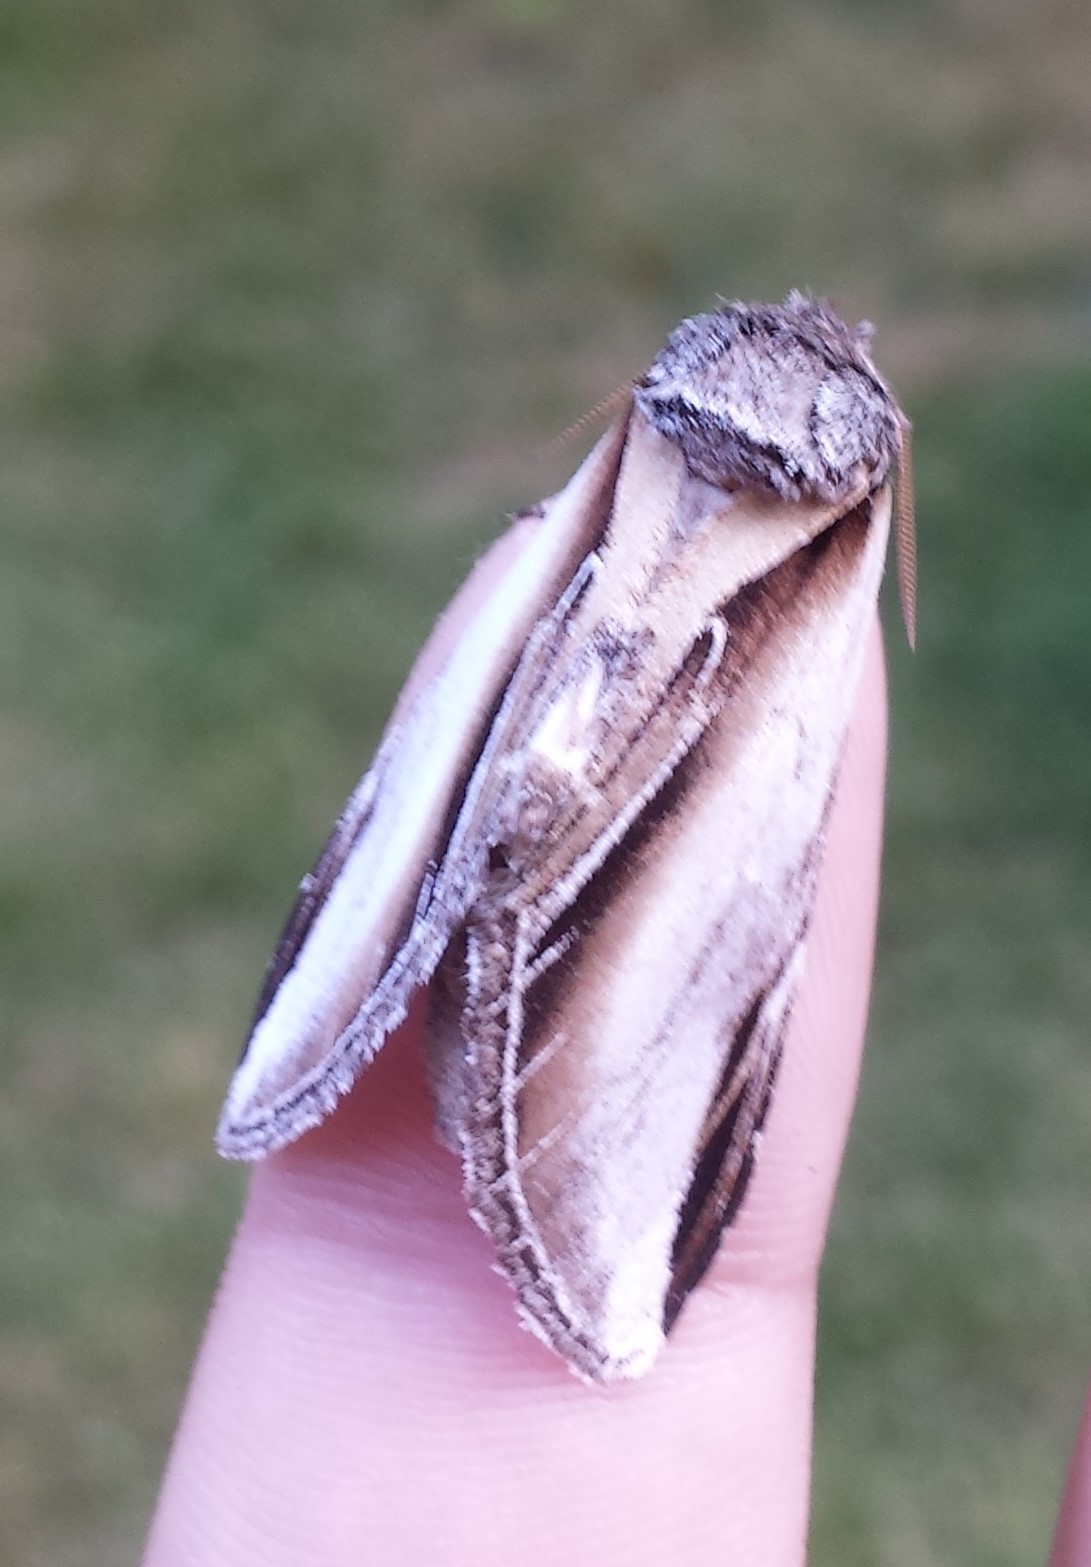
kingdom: Animalia
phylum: Arthropoda
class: Insecta
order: Lepidoptera
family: Notodontidae
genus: Pheosia
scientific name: Pheosia rimosa
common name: Black-rimmed prominent
